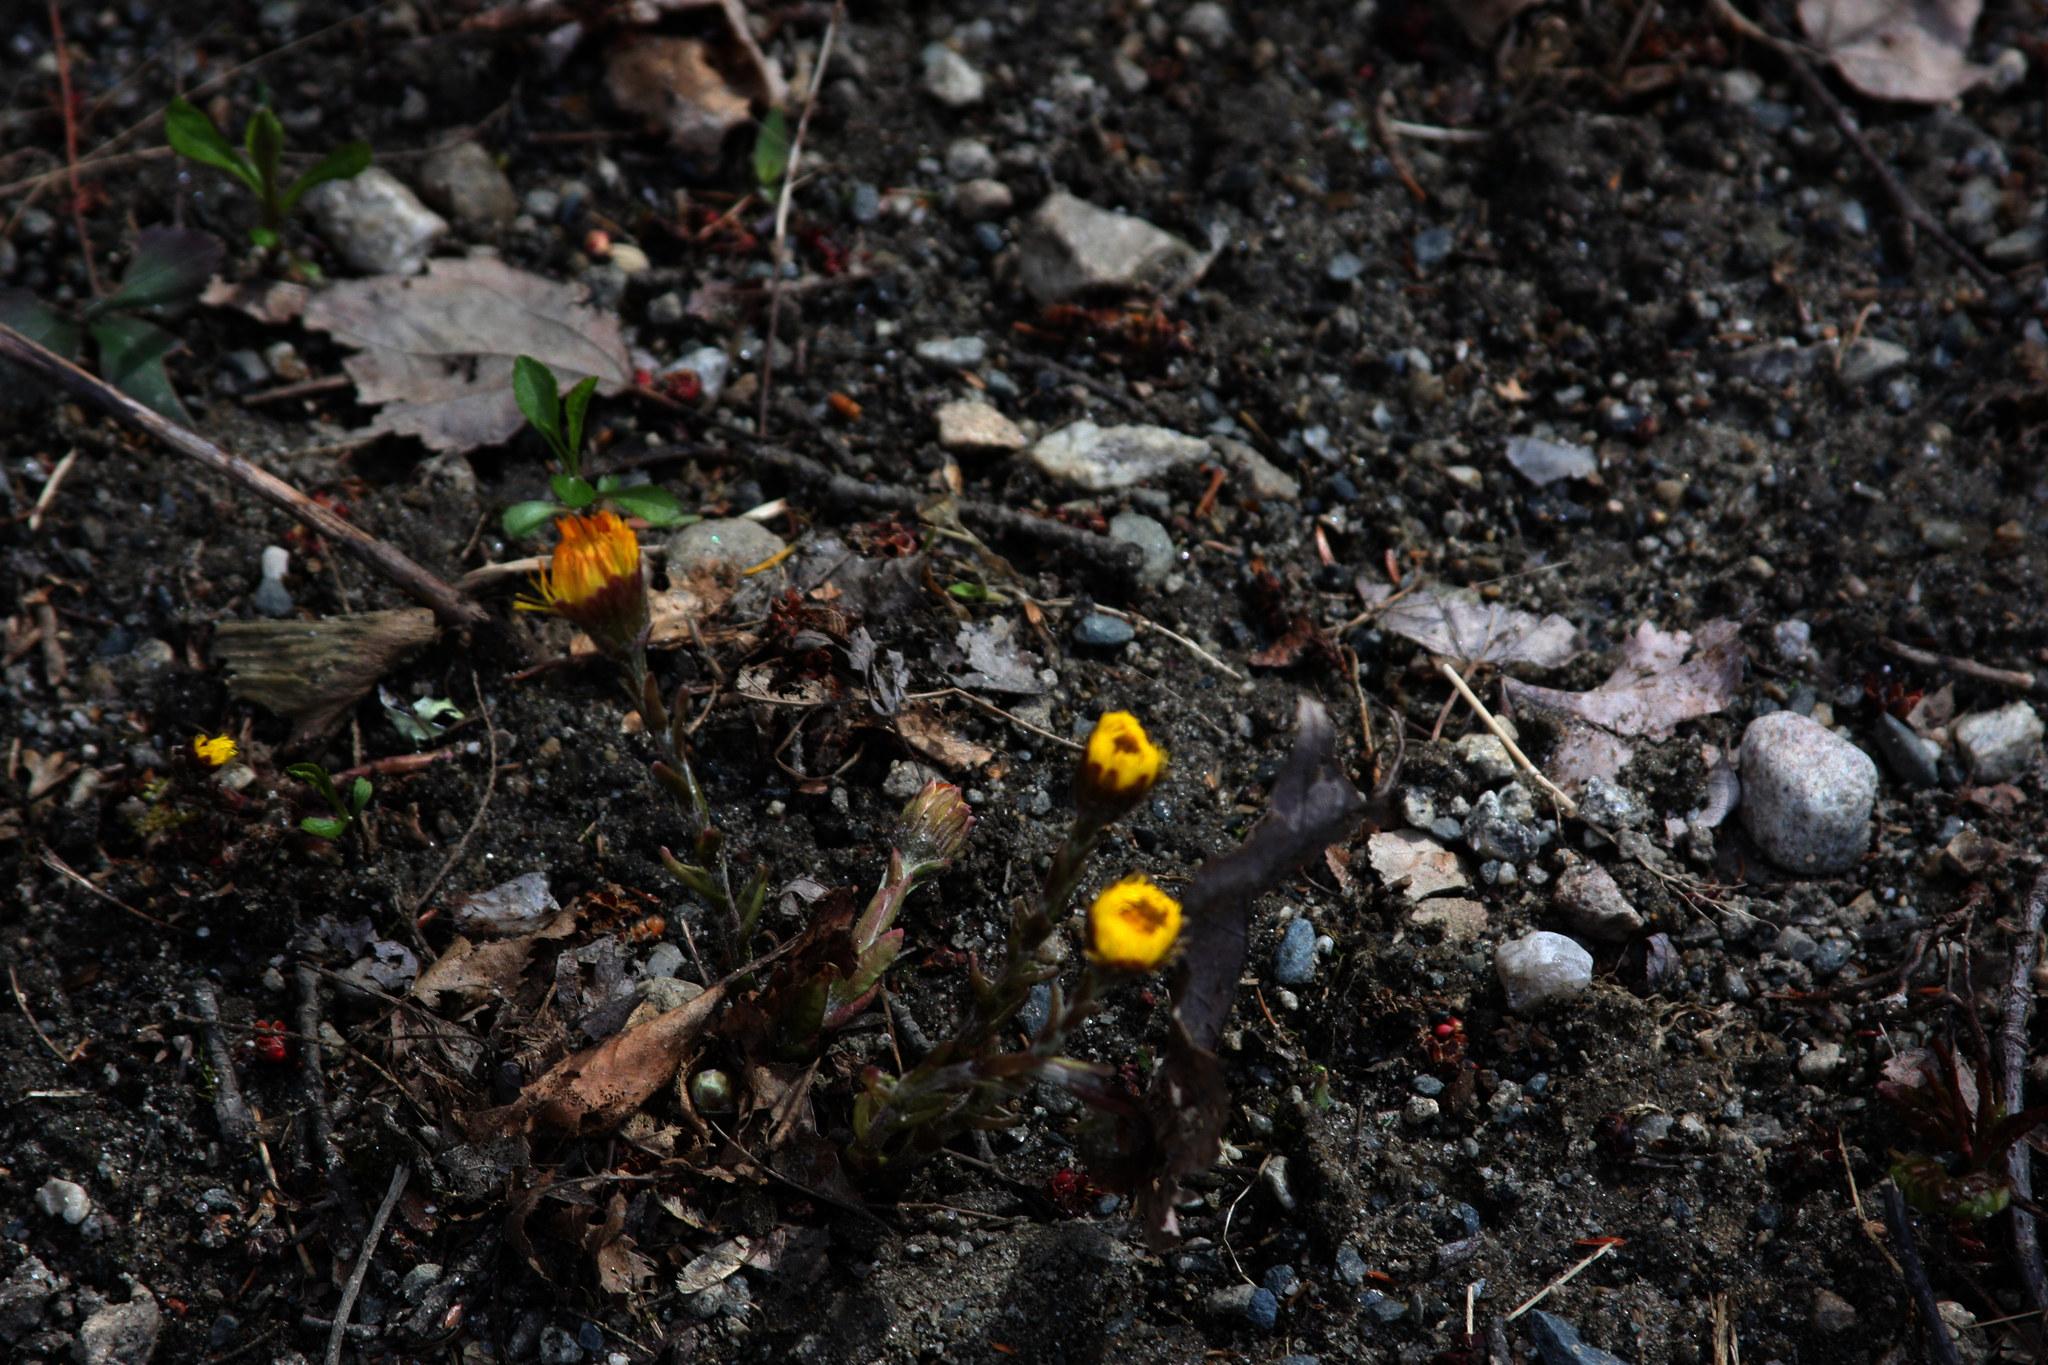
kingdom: Plantae
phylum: Tracheophyta
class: Magnoliopsida
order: Asterales
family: Asteraceae
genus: Tussilago
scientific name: Tussilago farfara
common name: Coltsfoot
